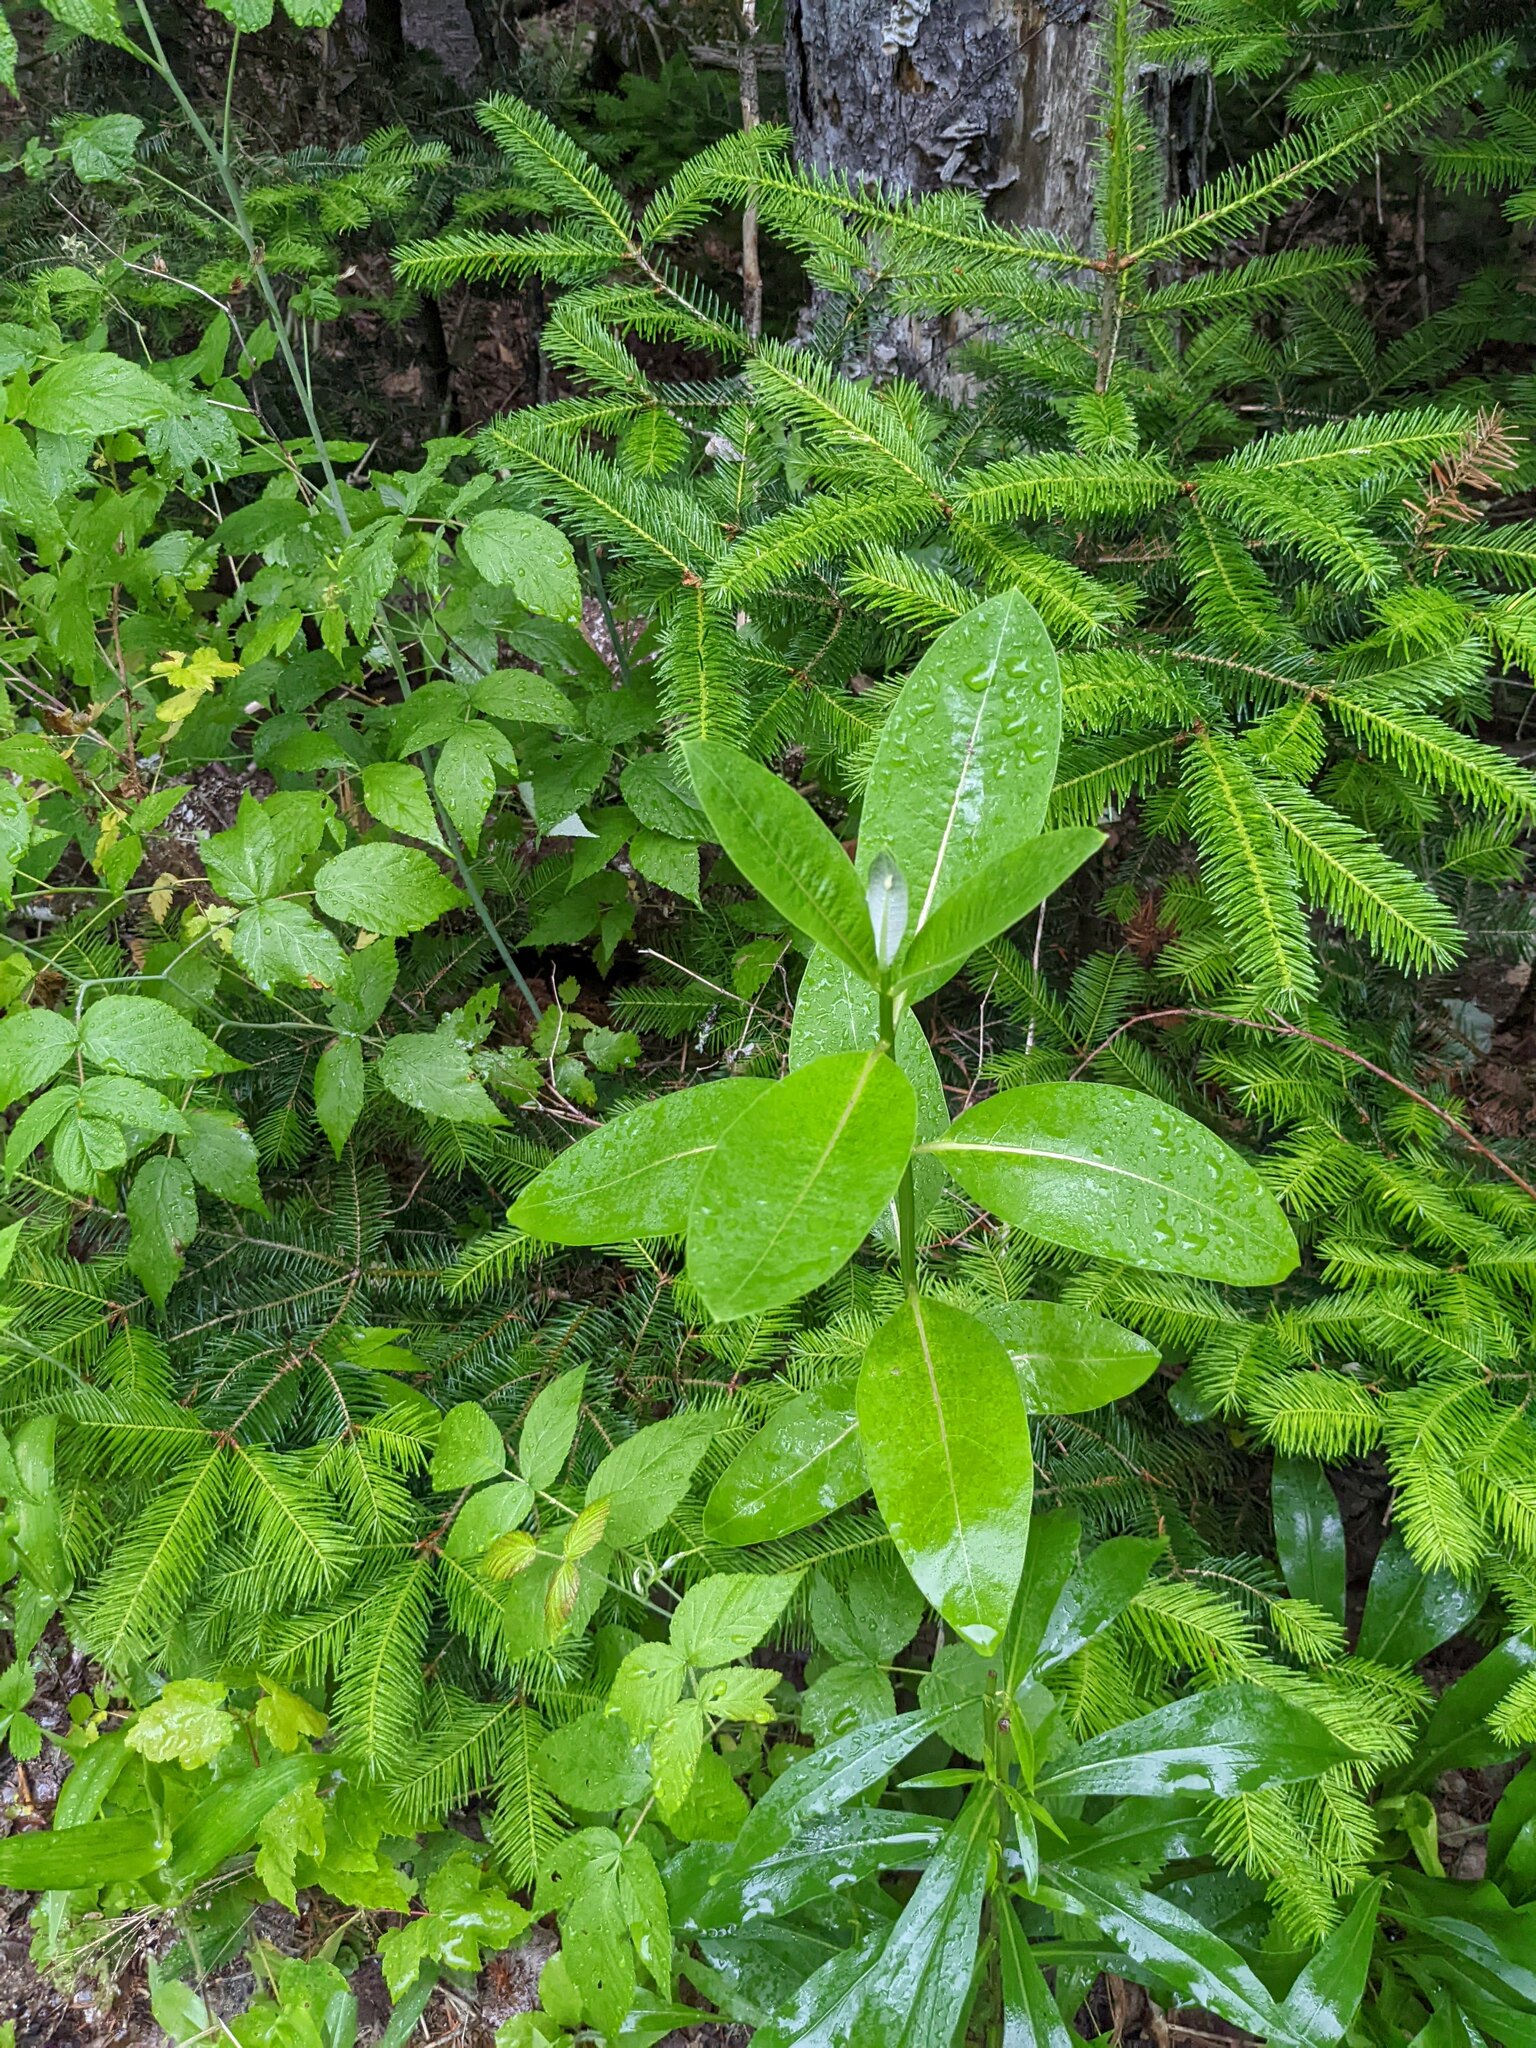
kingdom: Plantae
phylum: Tracheophyta
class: Magnoliopsida
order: Gentianales
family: Apocynaceae
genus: Asclepias
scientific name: Asclepias syriaca
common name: Common milkweed
